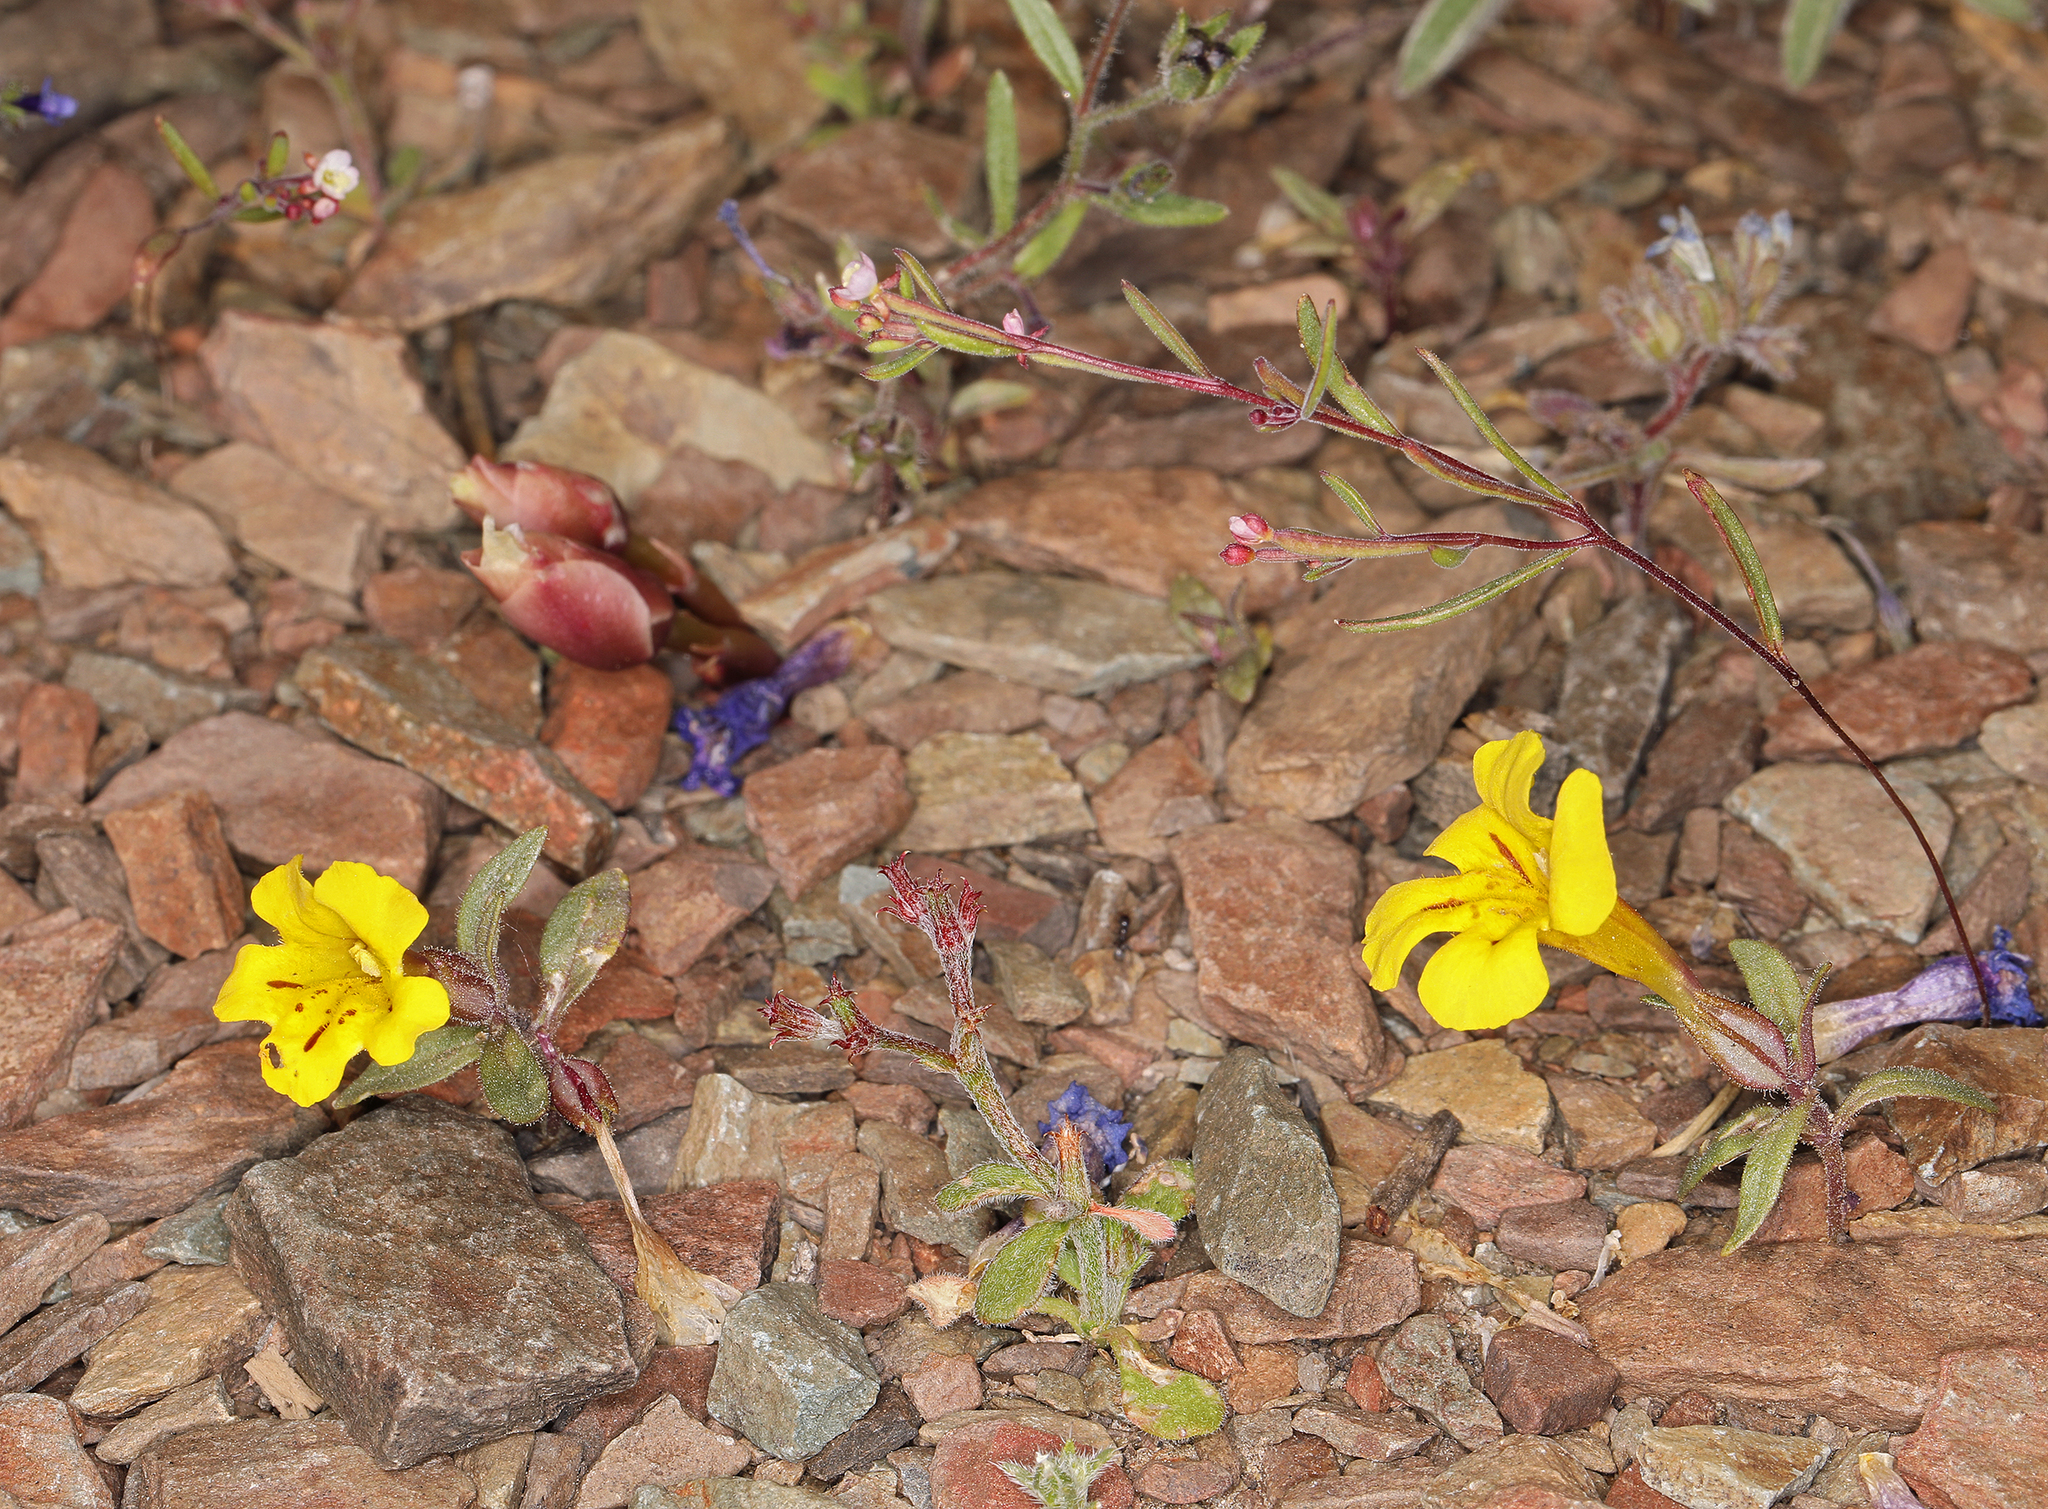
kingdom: Plantae
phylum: Tracheophyta
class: Magnoliopsida
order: Lamiales
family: Phrymaceae
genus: Diplacus
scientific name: Diplacus mephiticus
